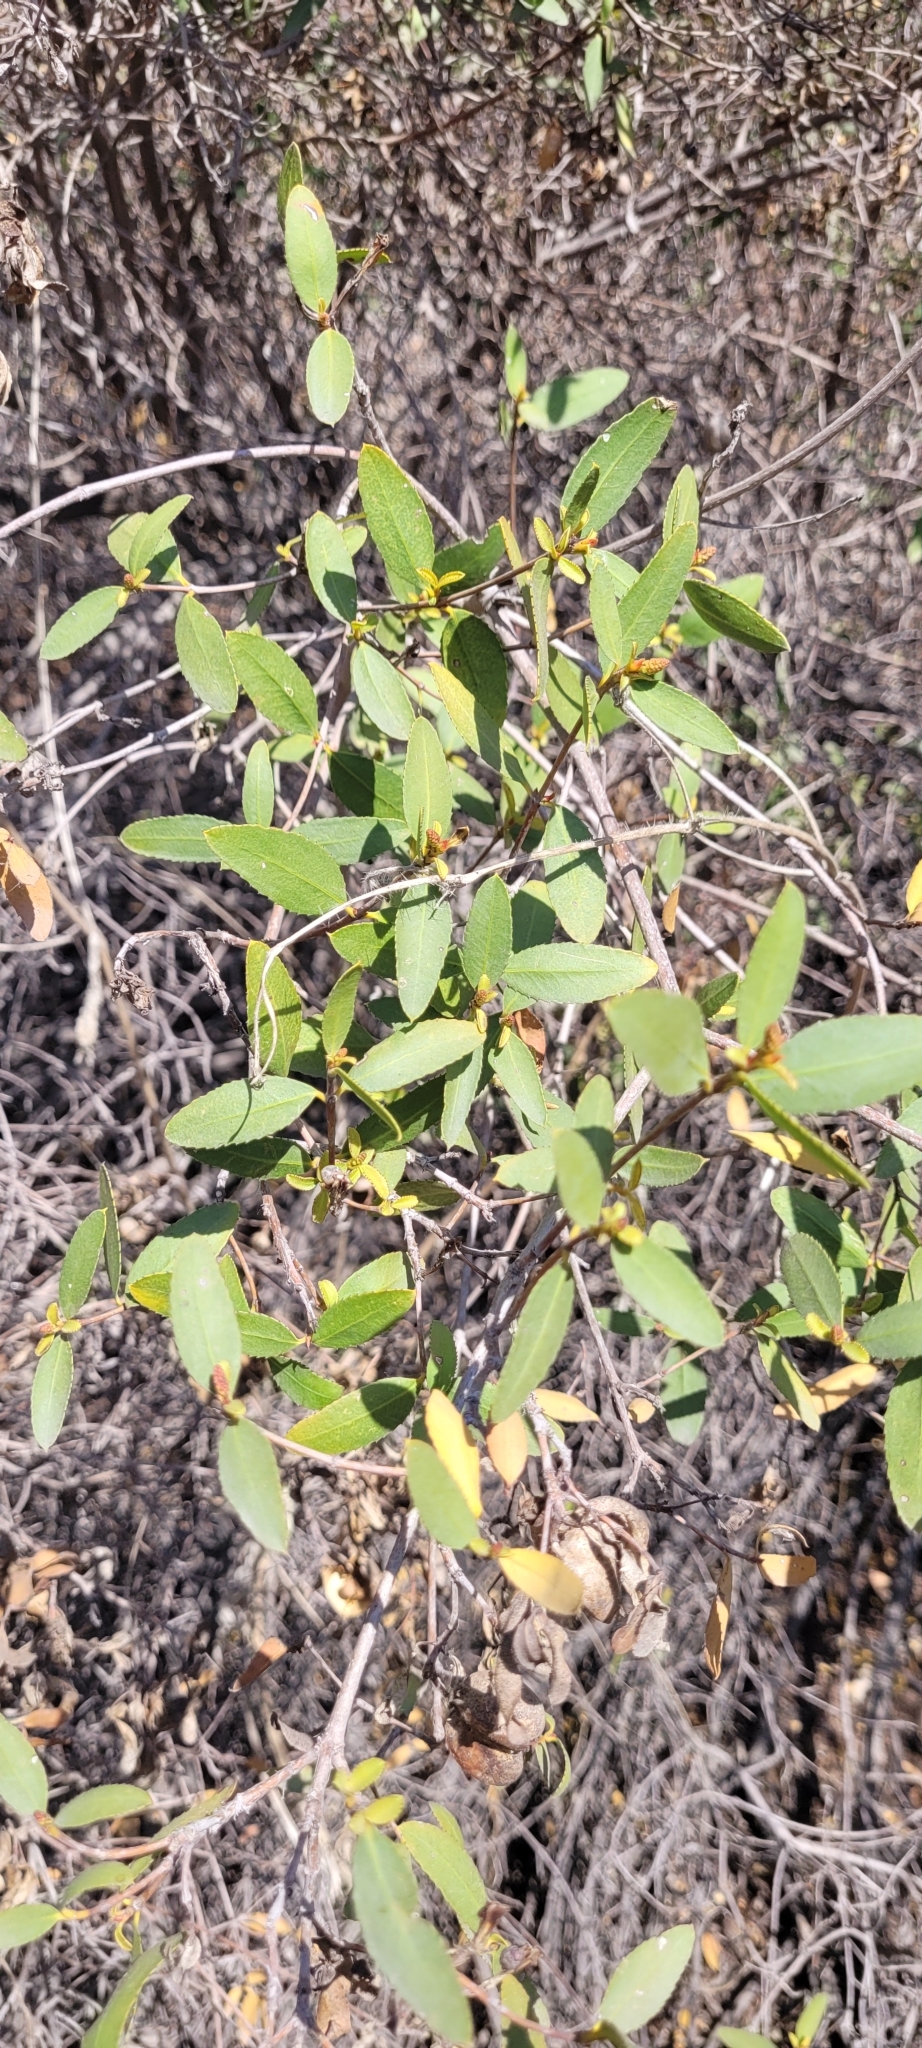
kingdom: Plantae
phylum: Tracheophyta
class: Magnoliopsida
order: Malpighiales
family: Euphorbiaceae
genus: Colliguaja
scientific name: Colliguaja odorifera
